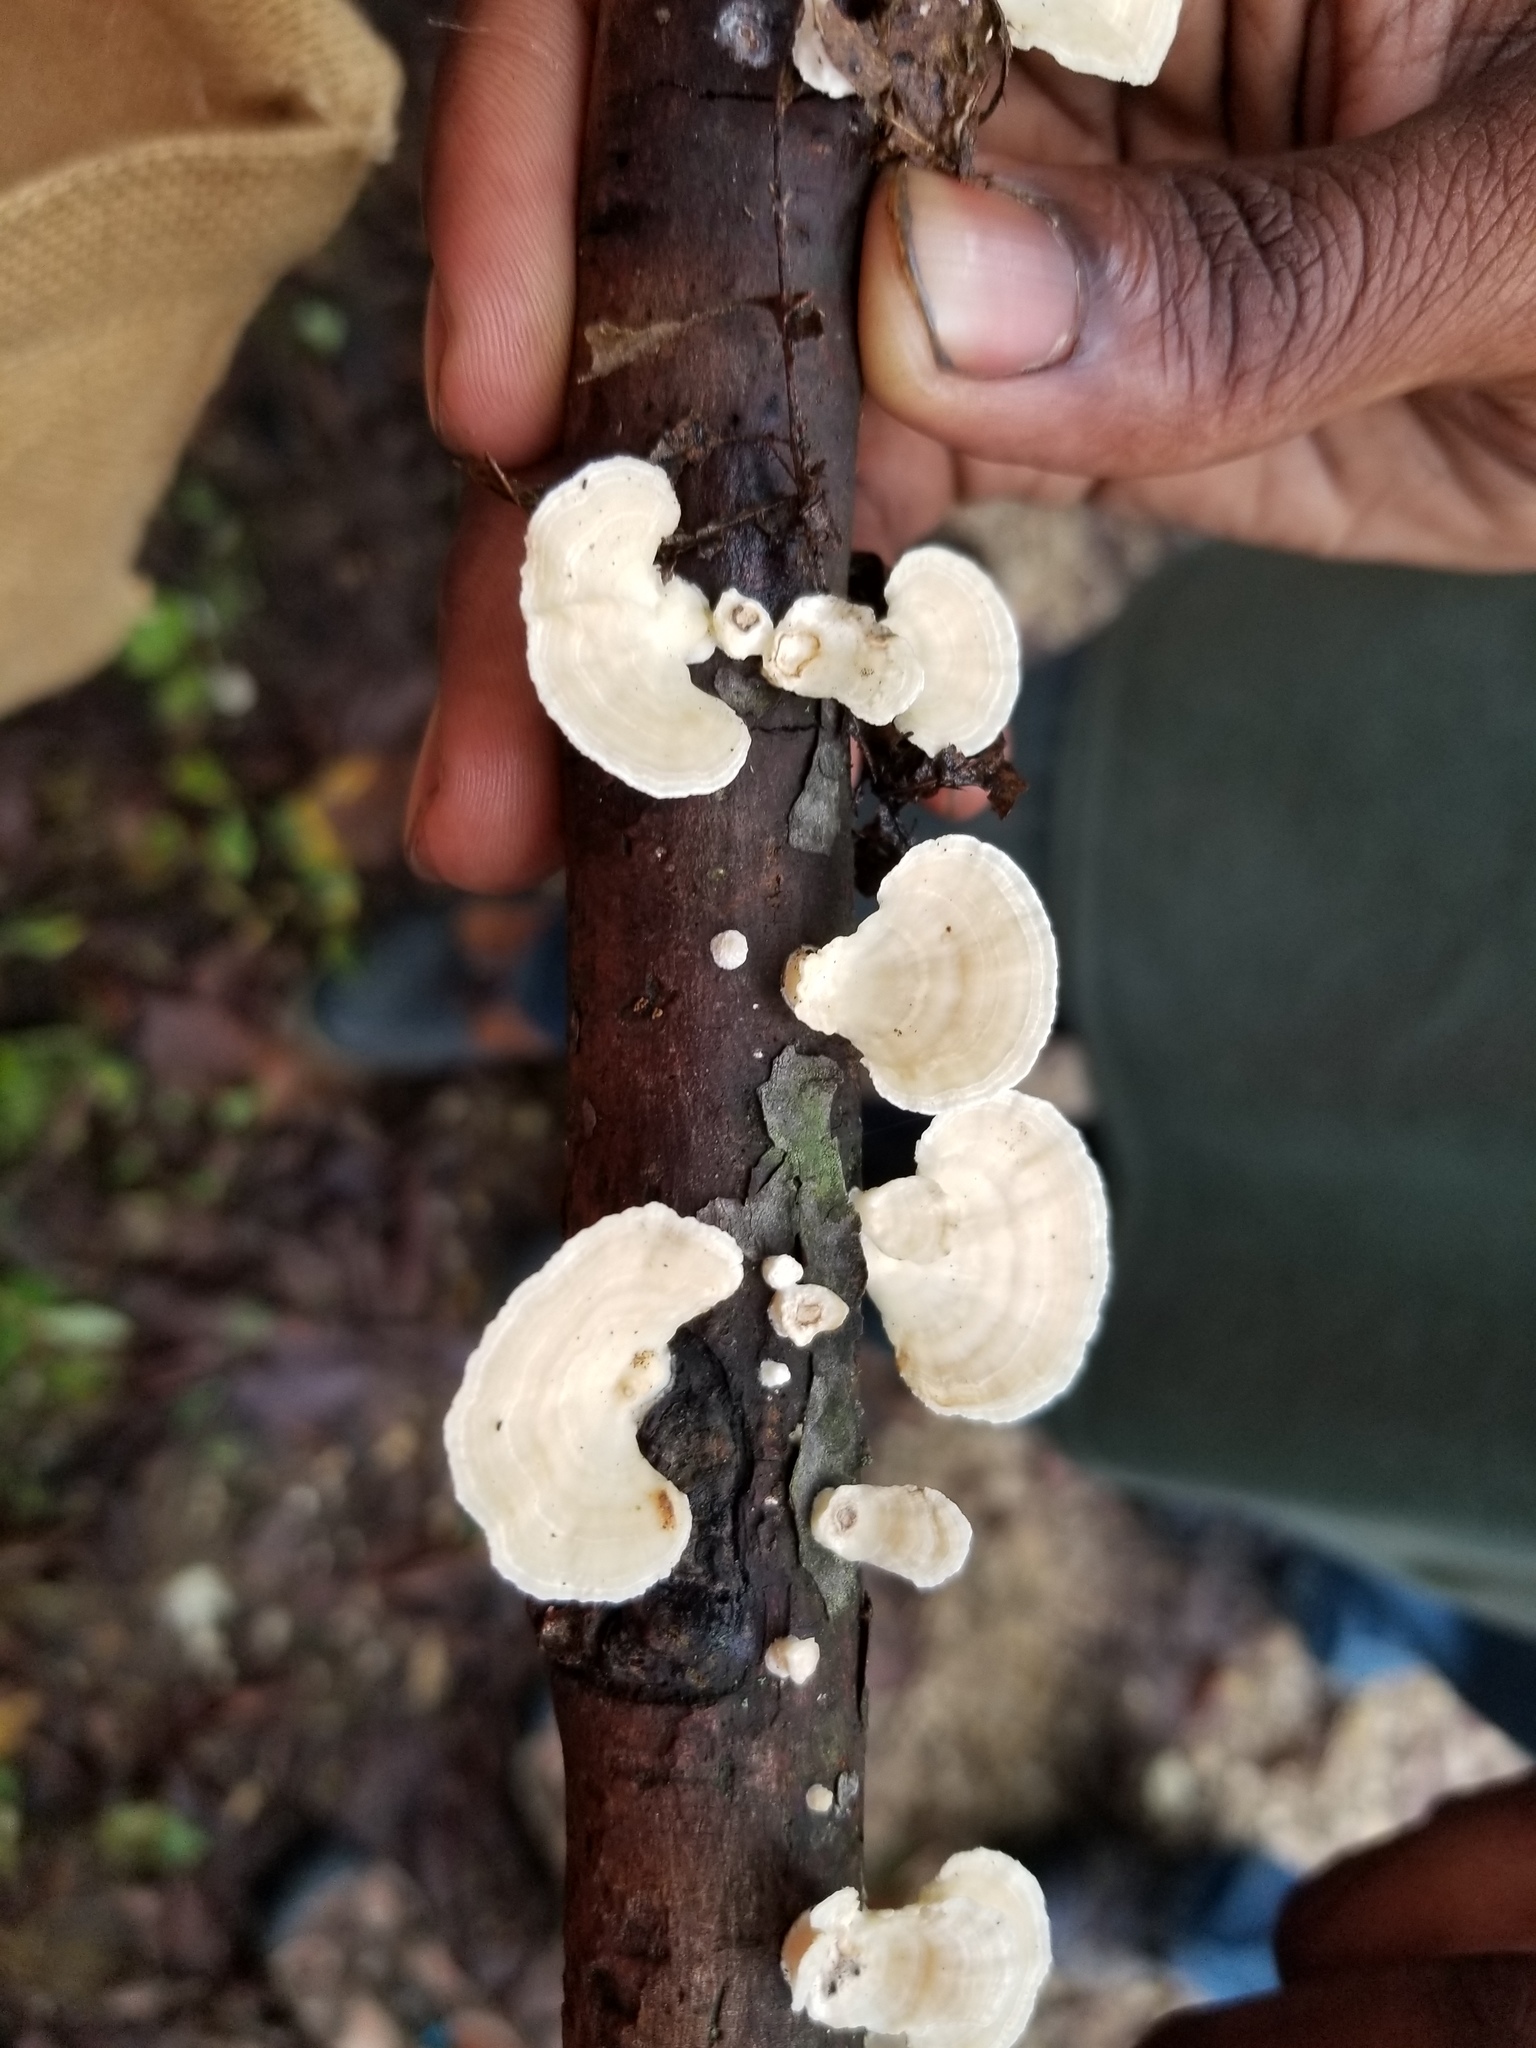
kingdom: Fungi
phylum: Basidiomycota
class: Agaricomycetes
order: Polyporales
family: Polyporaceae
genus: Poronidulus
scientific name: Poronidulus conchifer
